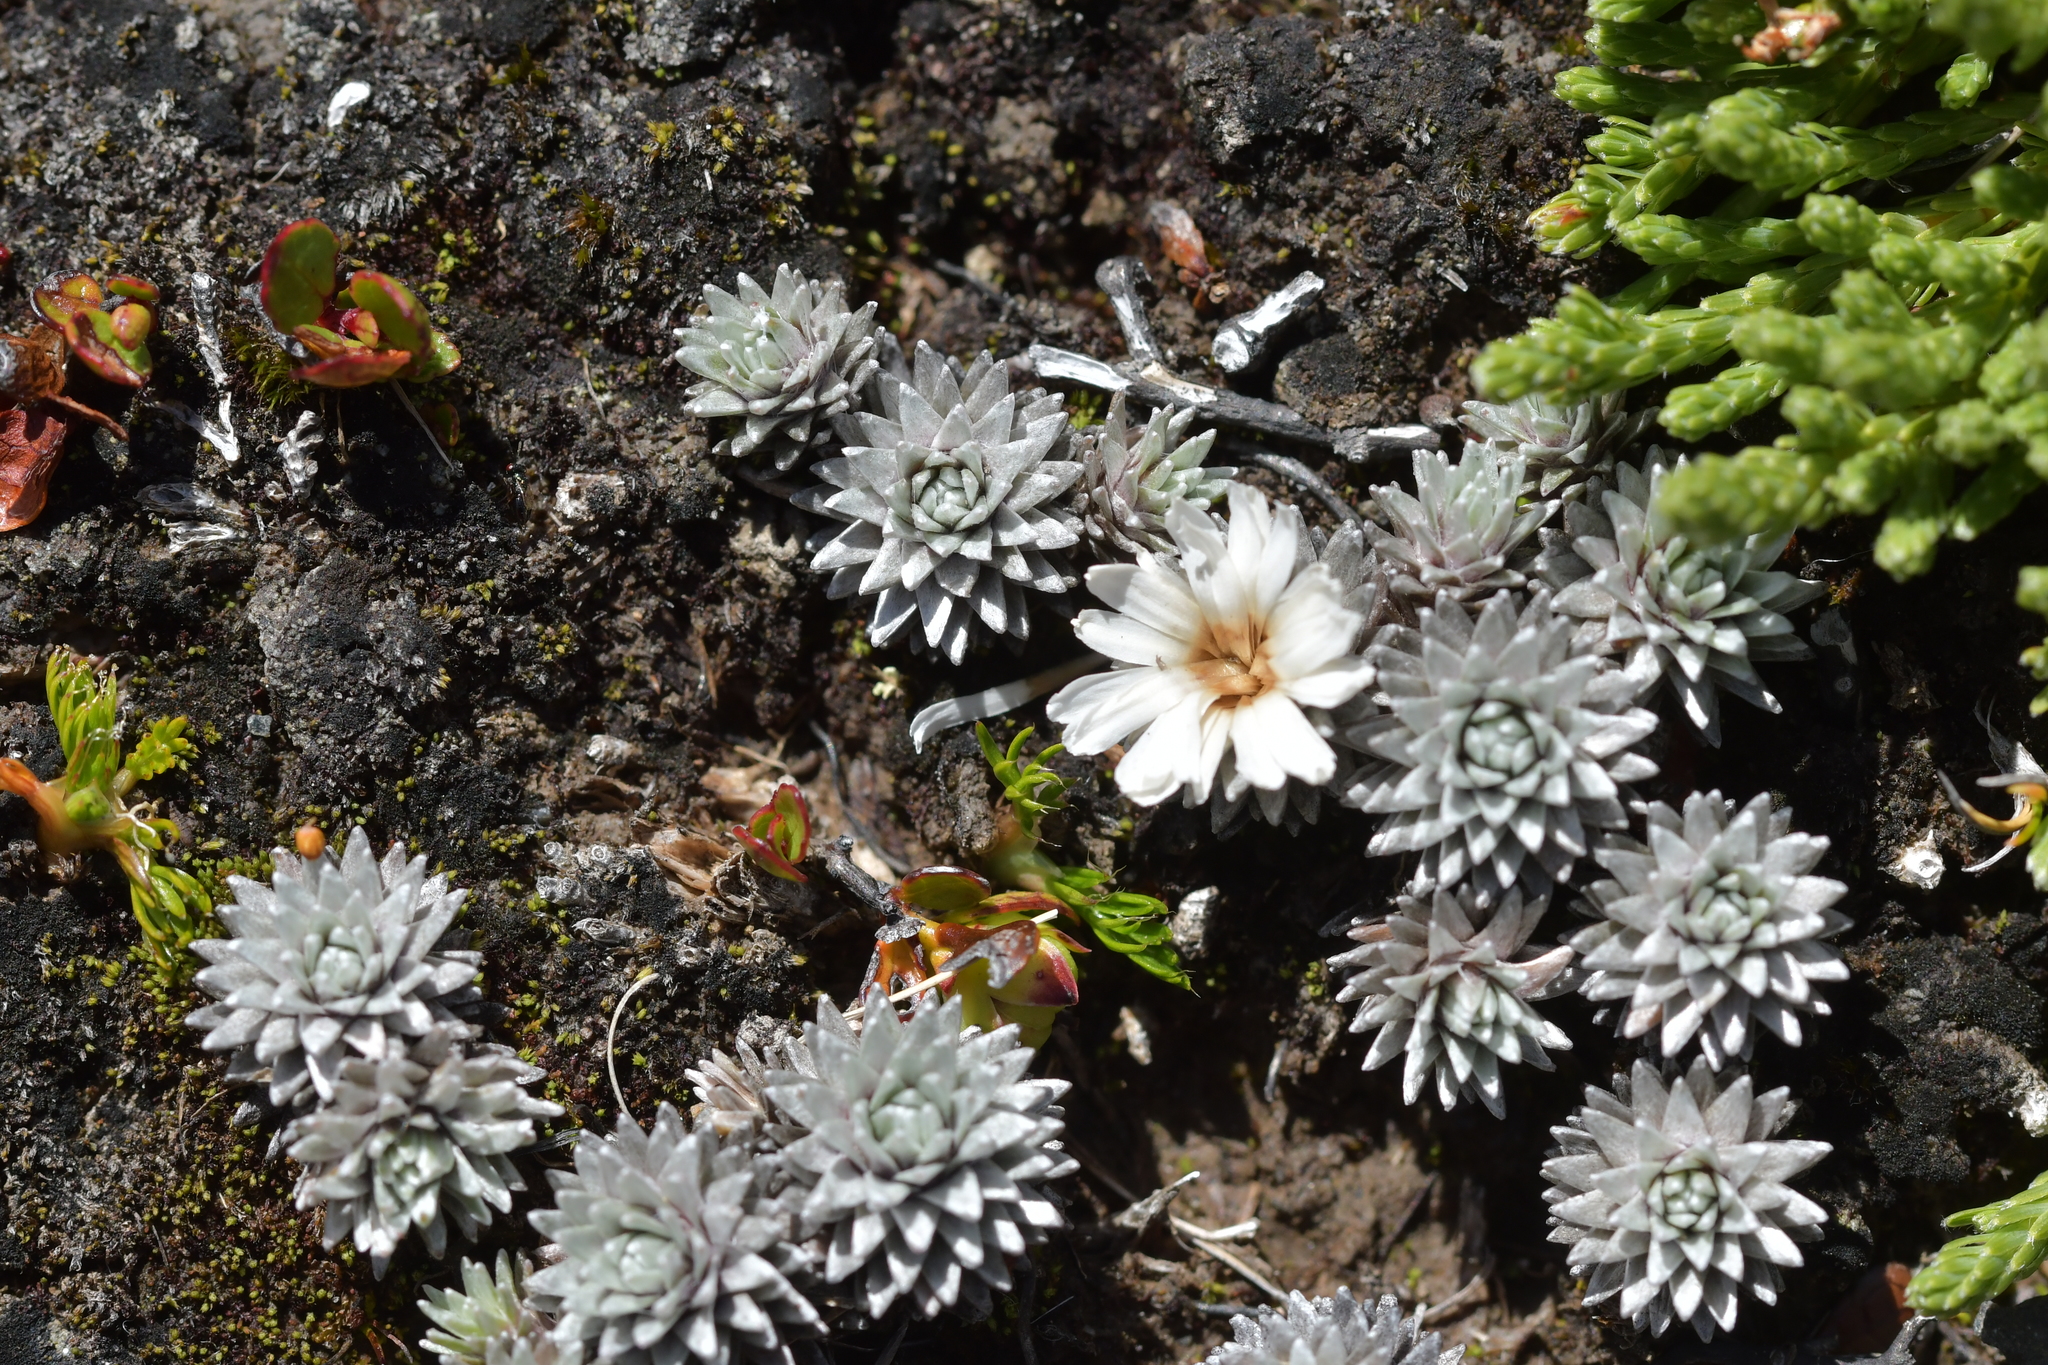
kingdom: Plantae
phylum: Tracheophyta
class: Magnoliopsida
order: Asterales
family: Asteraceae
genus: Raoulia
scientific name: Raoulia grandiflora
